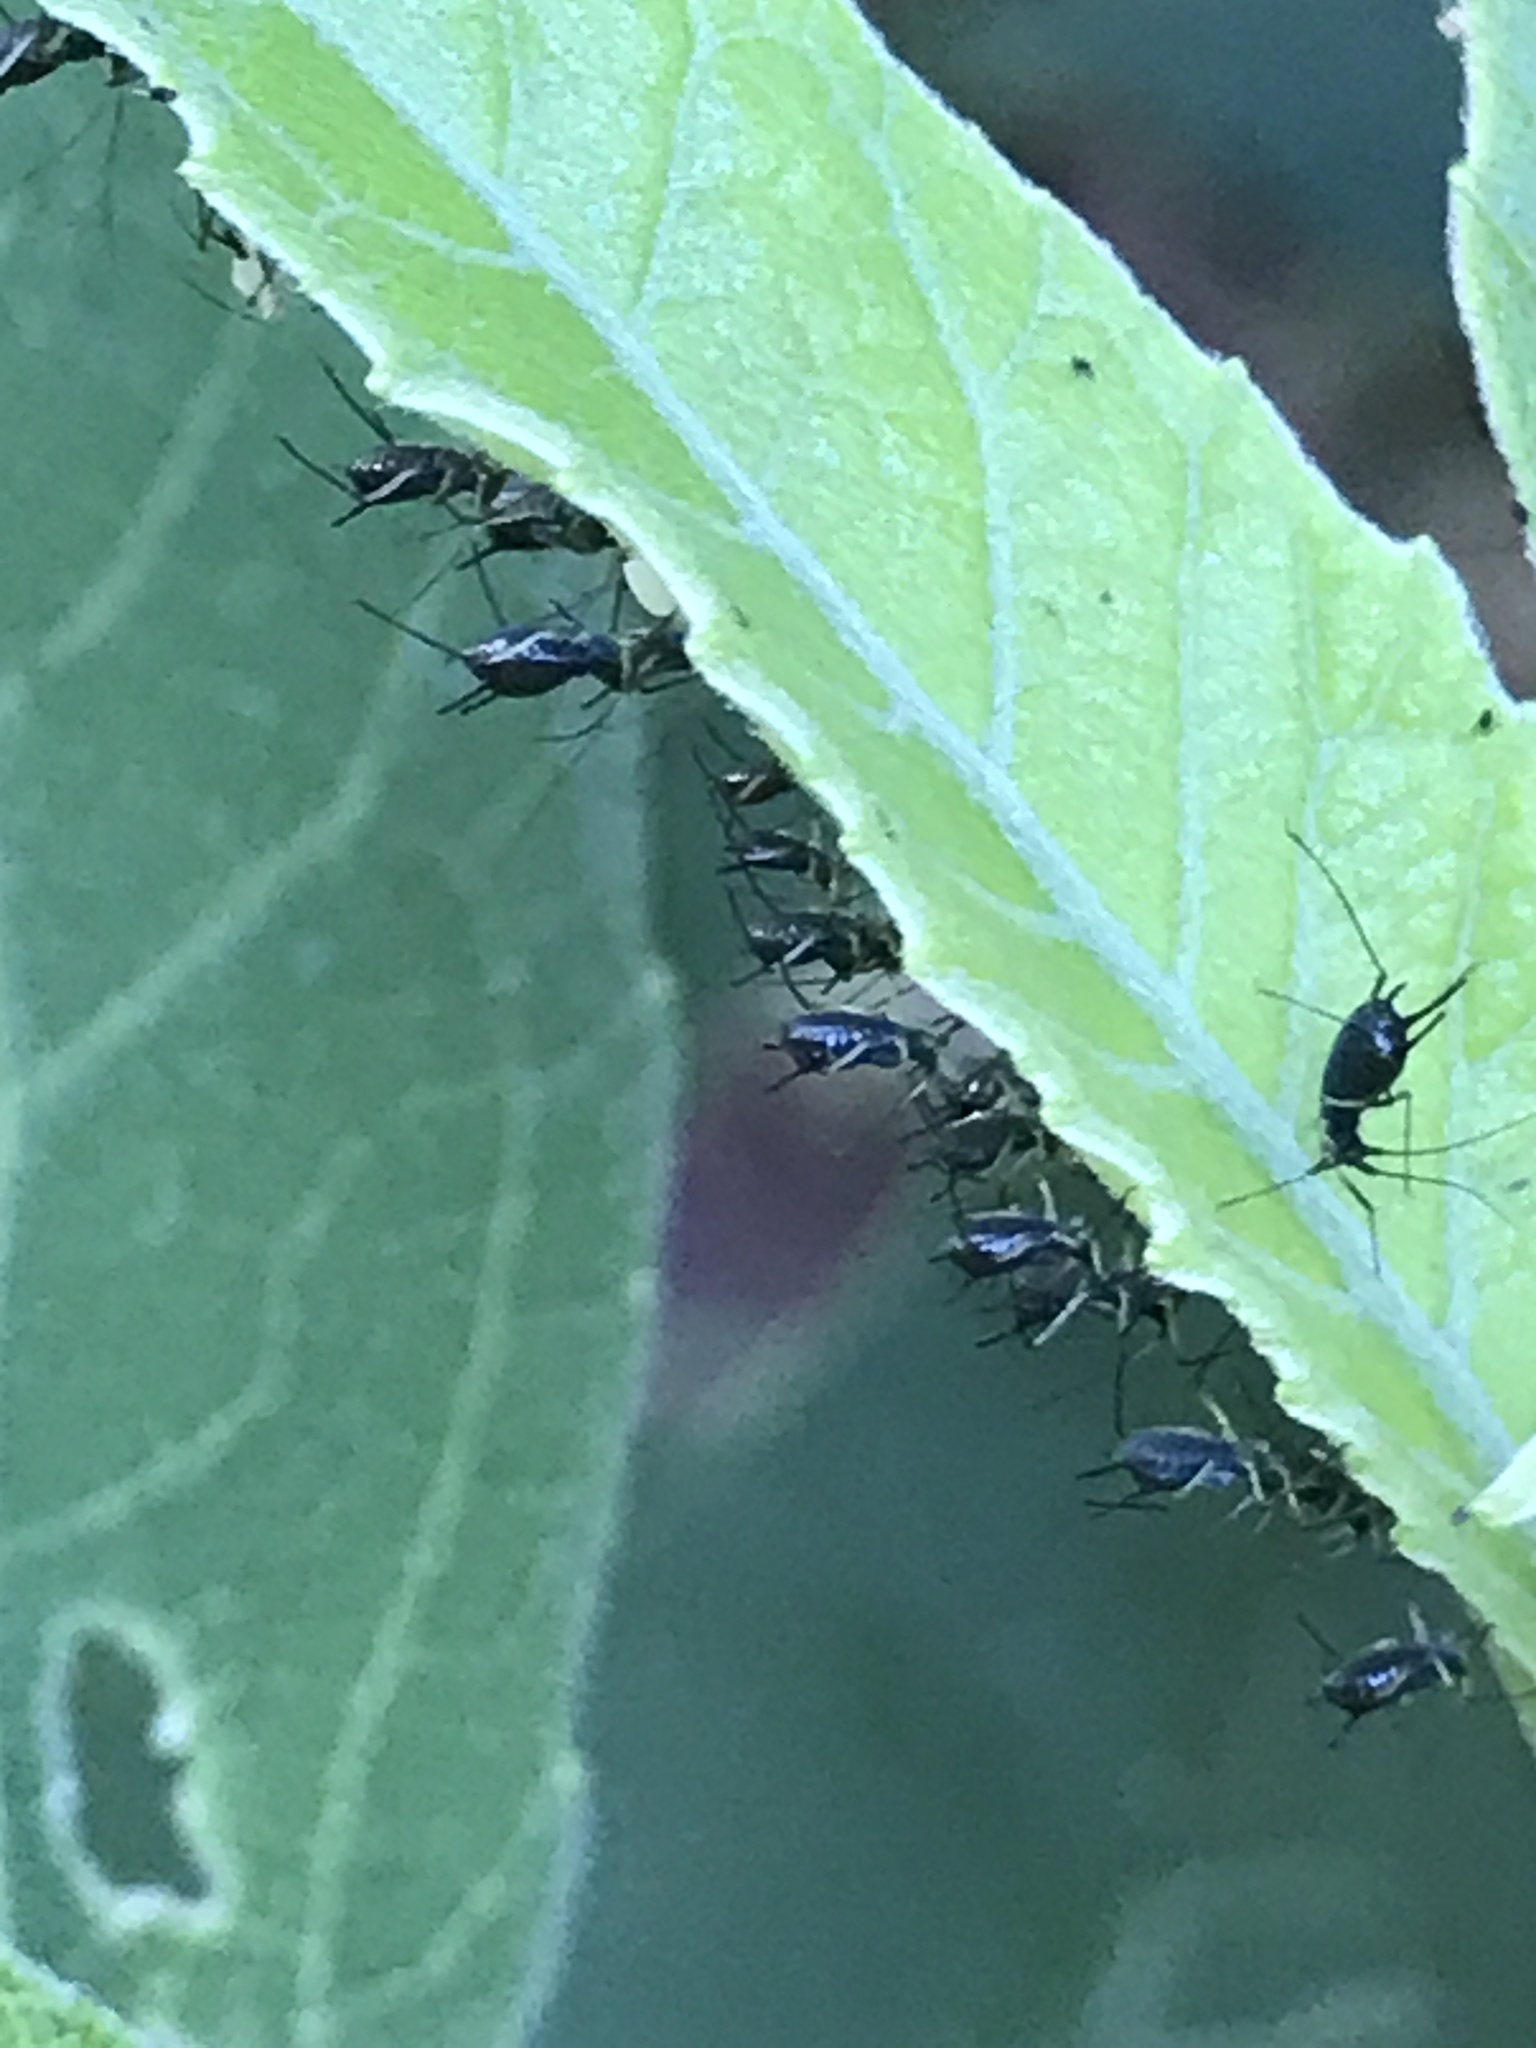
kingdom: Animalia
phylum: Arthropoda
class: Insecta
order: Hemiptera
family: Aphididae
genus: Uroleucon
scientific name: Uroleucon verbesinae
